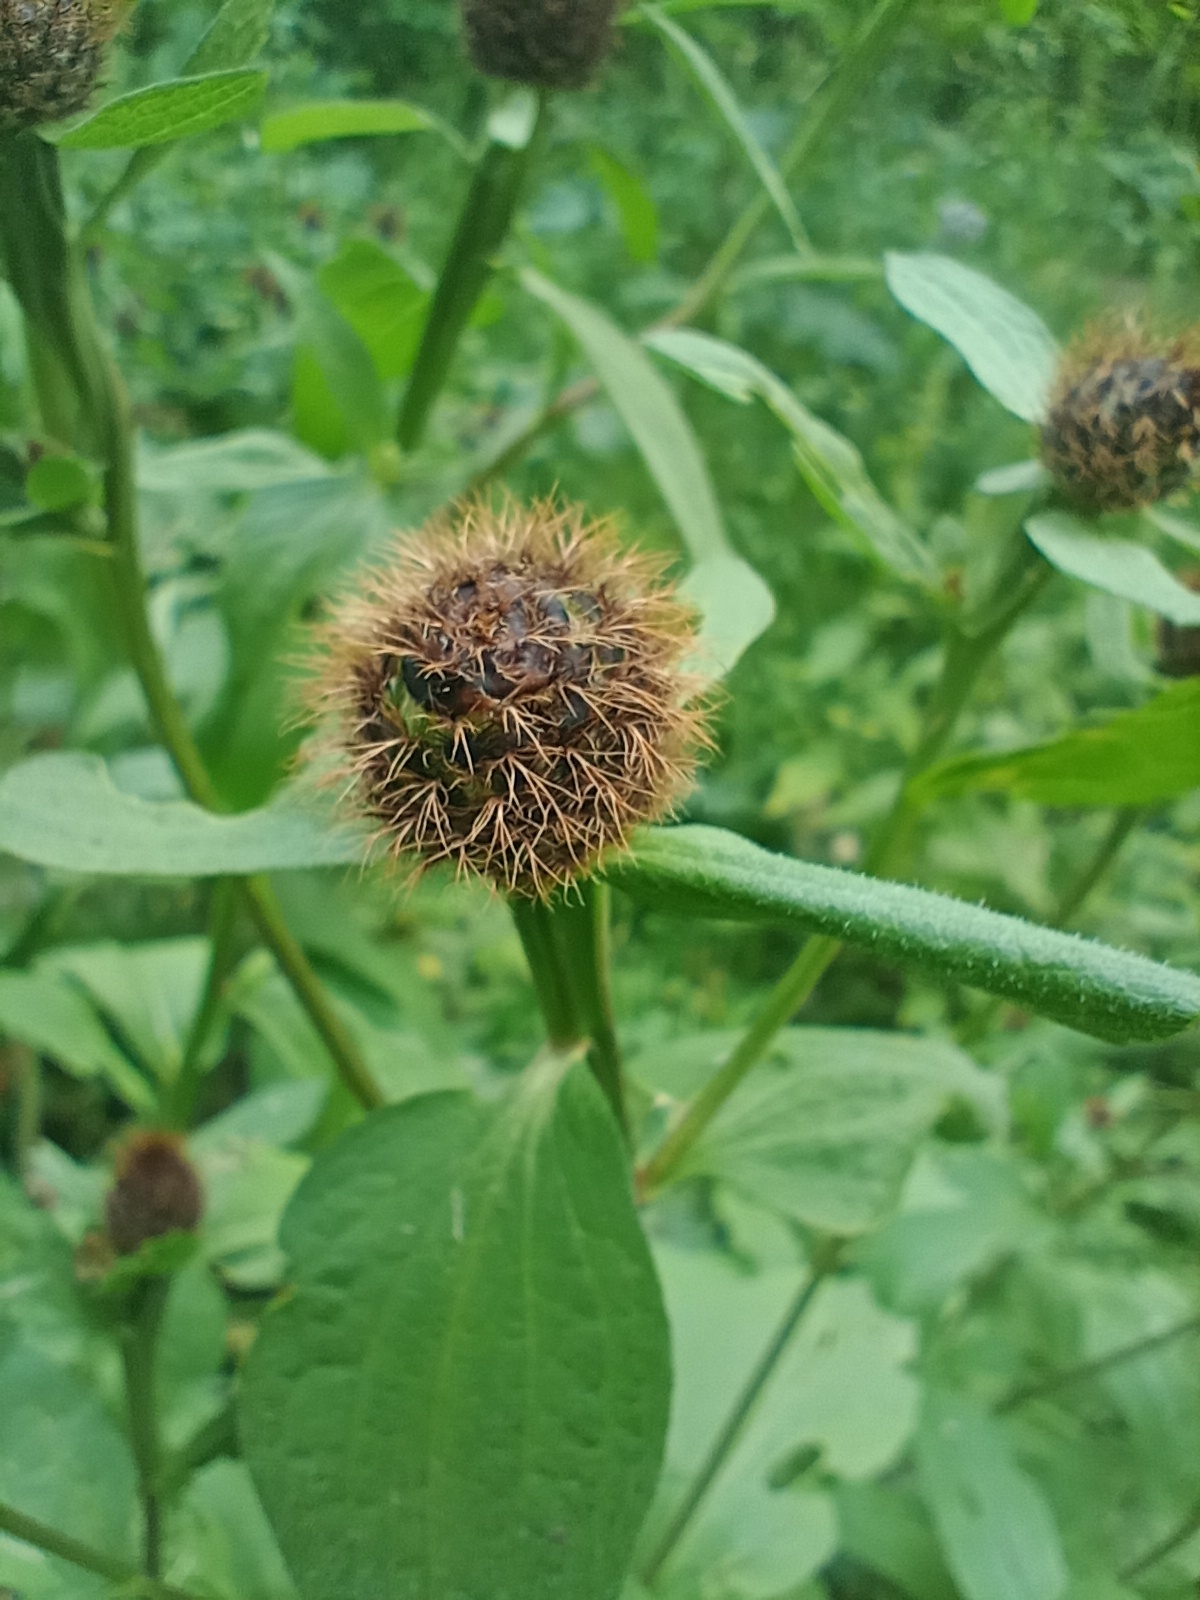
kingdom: Plantae
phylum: Tracheophyta
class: Magnoliopsida
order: Asterales
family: Asteraceae
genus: Centaurea
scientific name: Centaurea pseudophrygia
